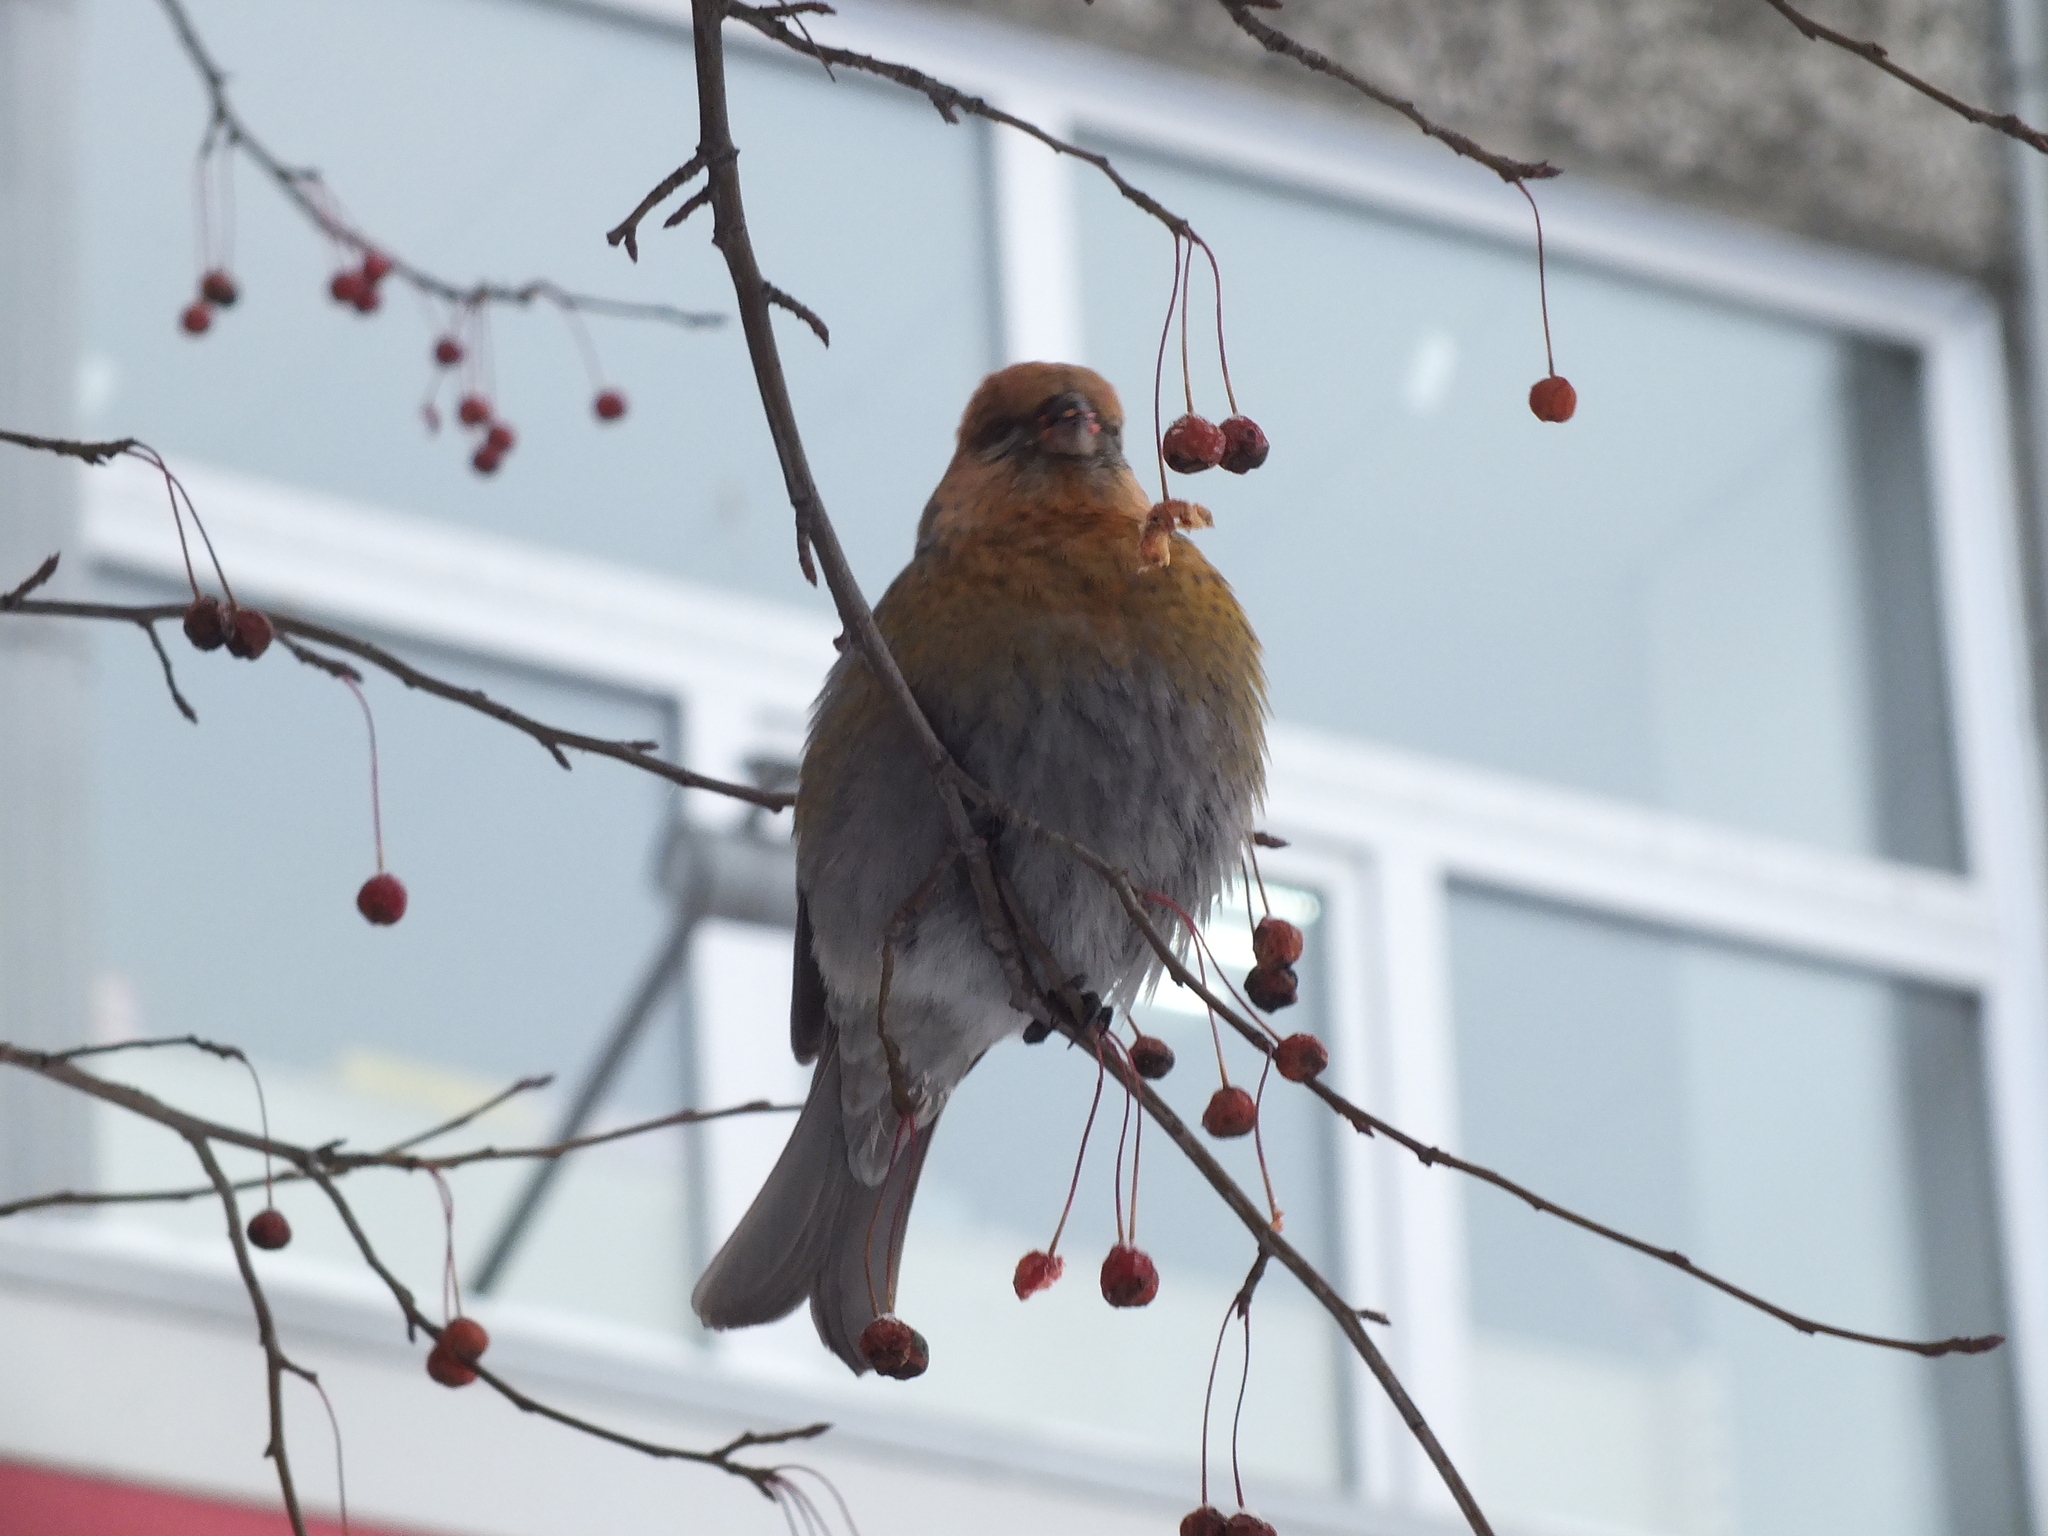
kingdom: Animalia
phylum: Chordata
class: Aves
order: Passeriformes
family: Fringillidae
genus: Pinicola
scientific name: Pinicola enucleator
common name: Pine grosbeak
